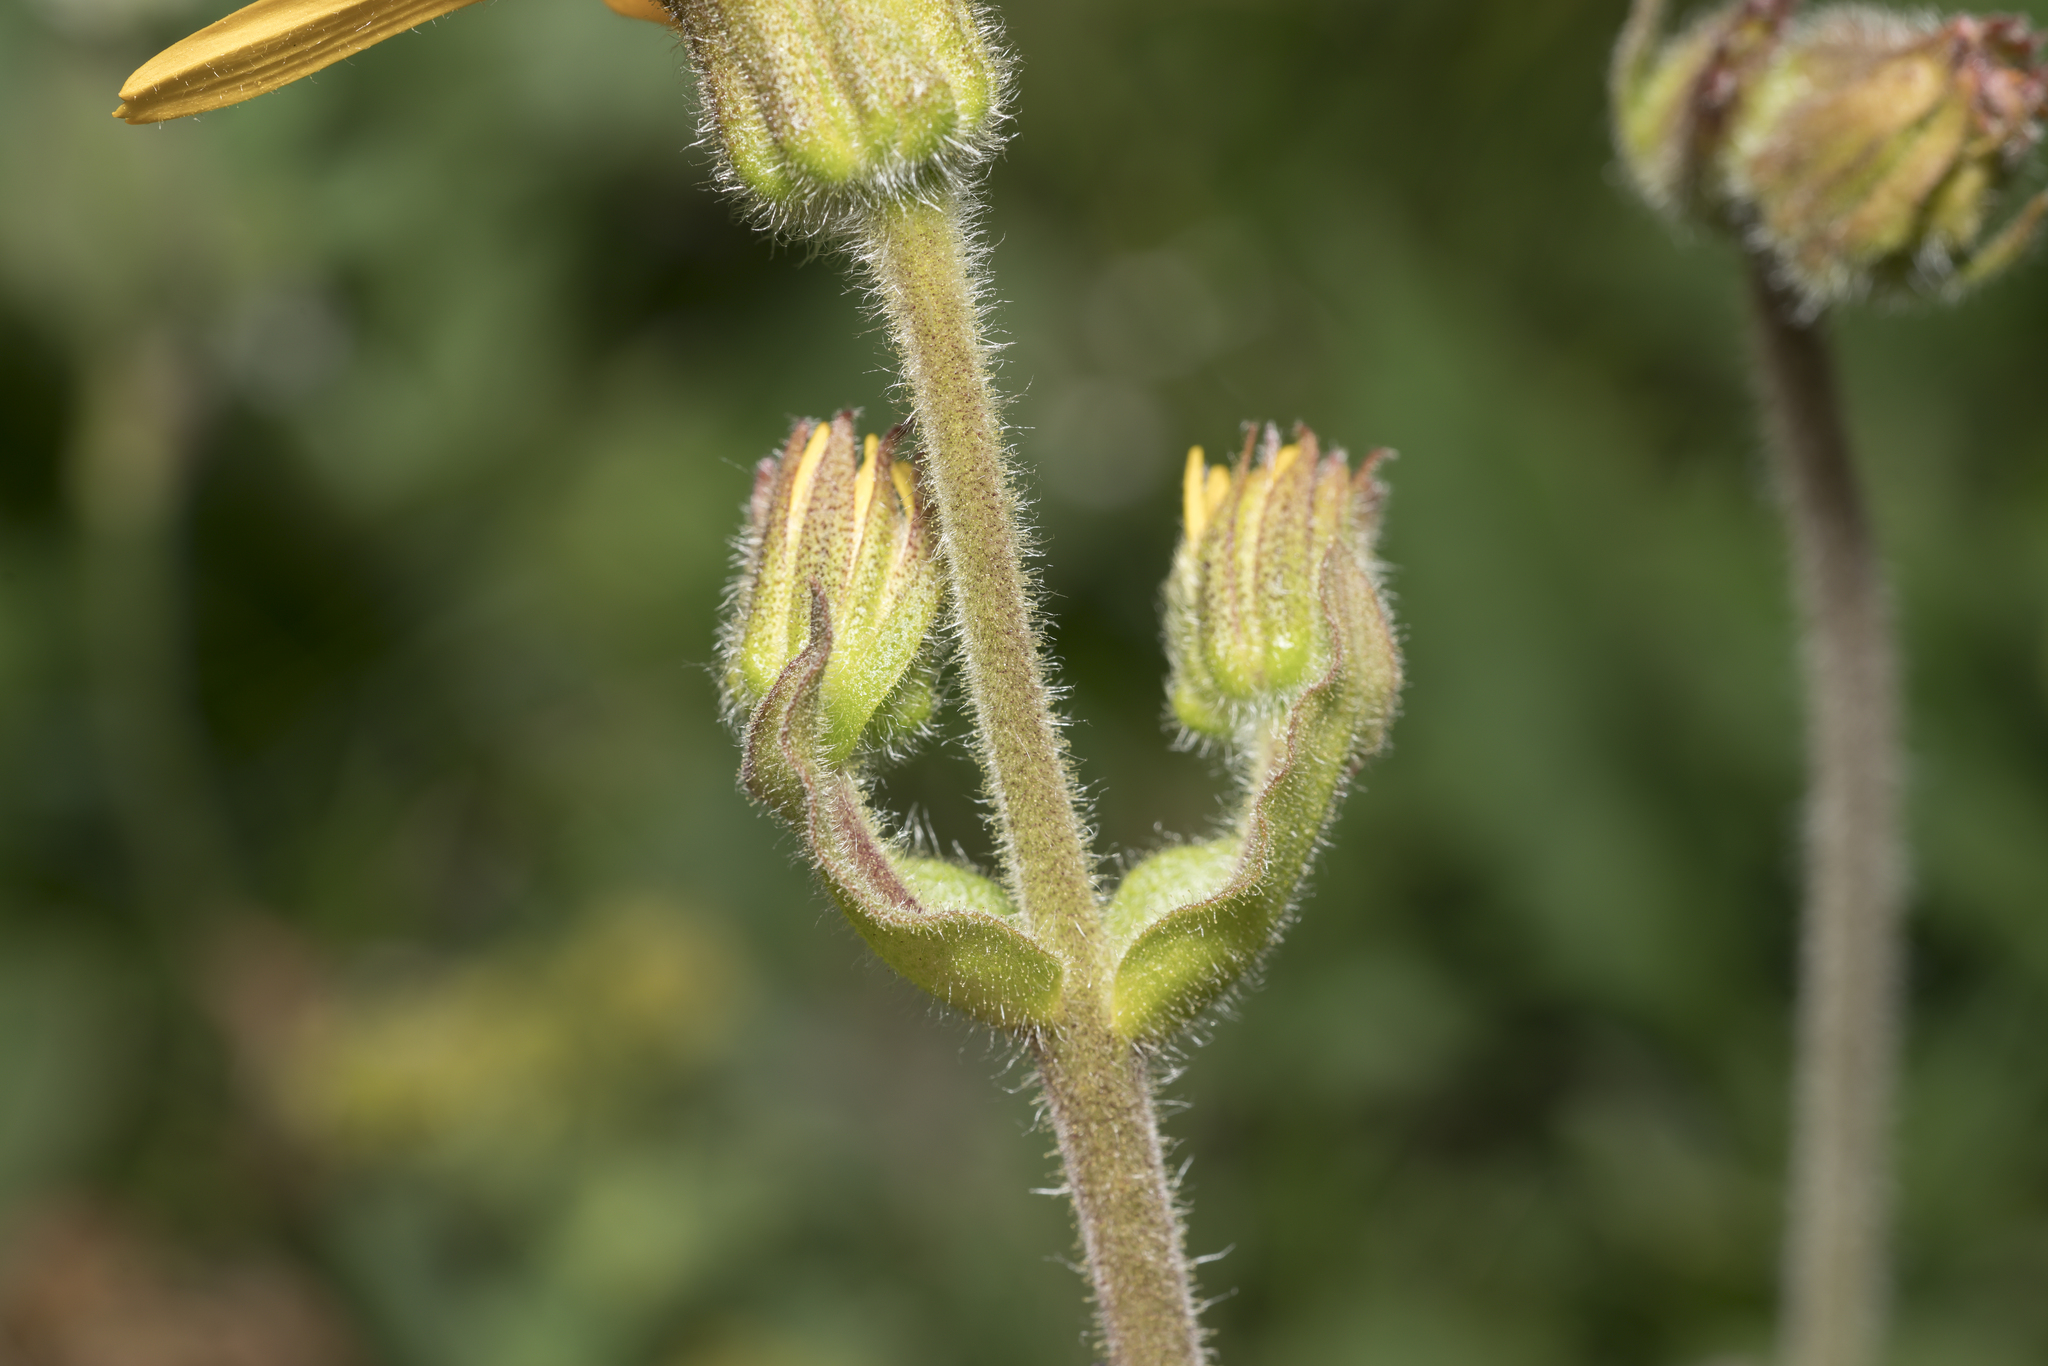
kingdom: Plantae
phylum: Tracheophyta
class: Magnoliopsida
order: Asterales
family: Asteraceae
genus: Arnica
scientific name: Arnica montana
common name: Leopard's bane
